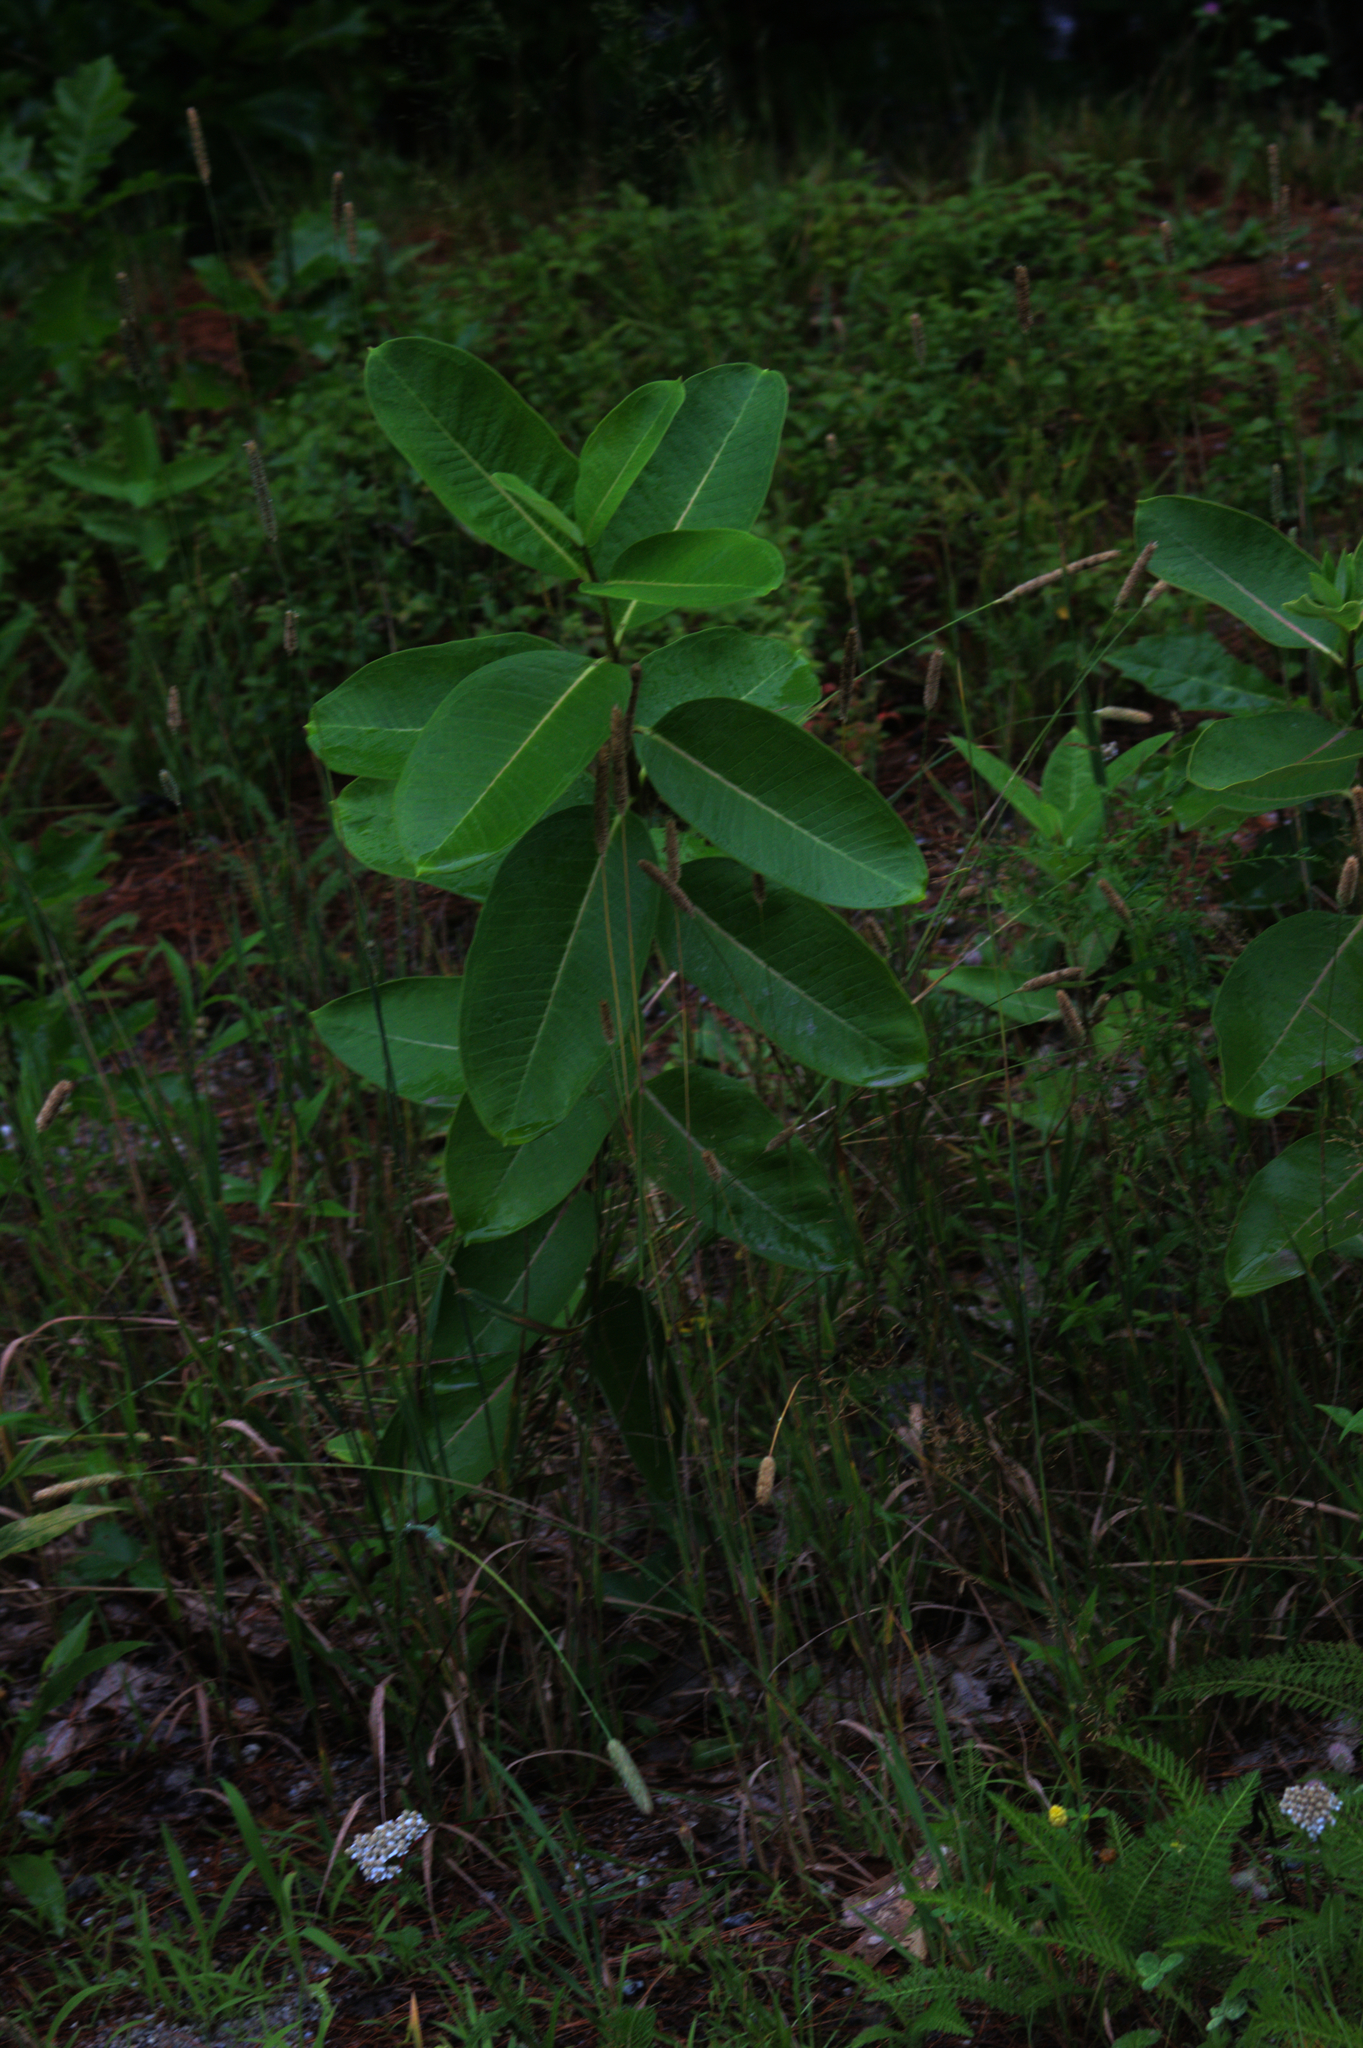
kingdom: Plantae
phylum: Tracheophyta
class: Magnoliopsida
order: Gentianales
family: Apocynaceae
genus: Asclepias
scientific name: Asclepias syriaca
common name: Common milkweed
